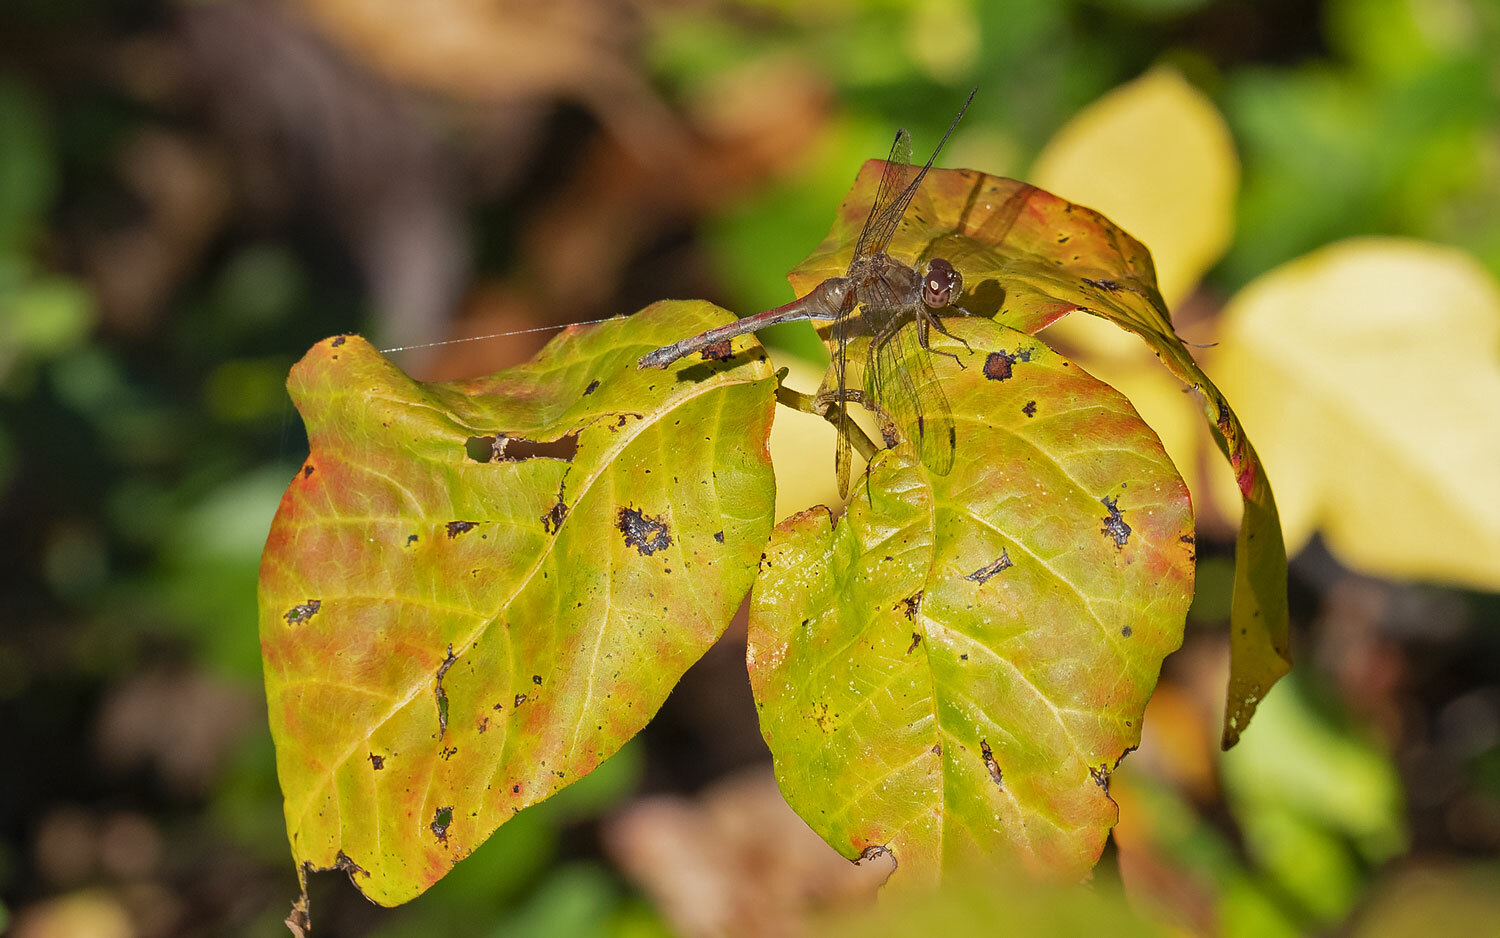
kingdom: Animalia
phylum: Arthropoda
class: Insecta
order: Odonata
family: Libellulidae
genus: Sympetrum
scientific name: Sympetrum vicinum
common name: Autumn meadowhawk
